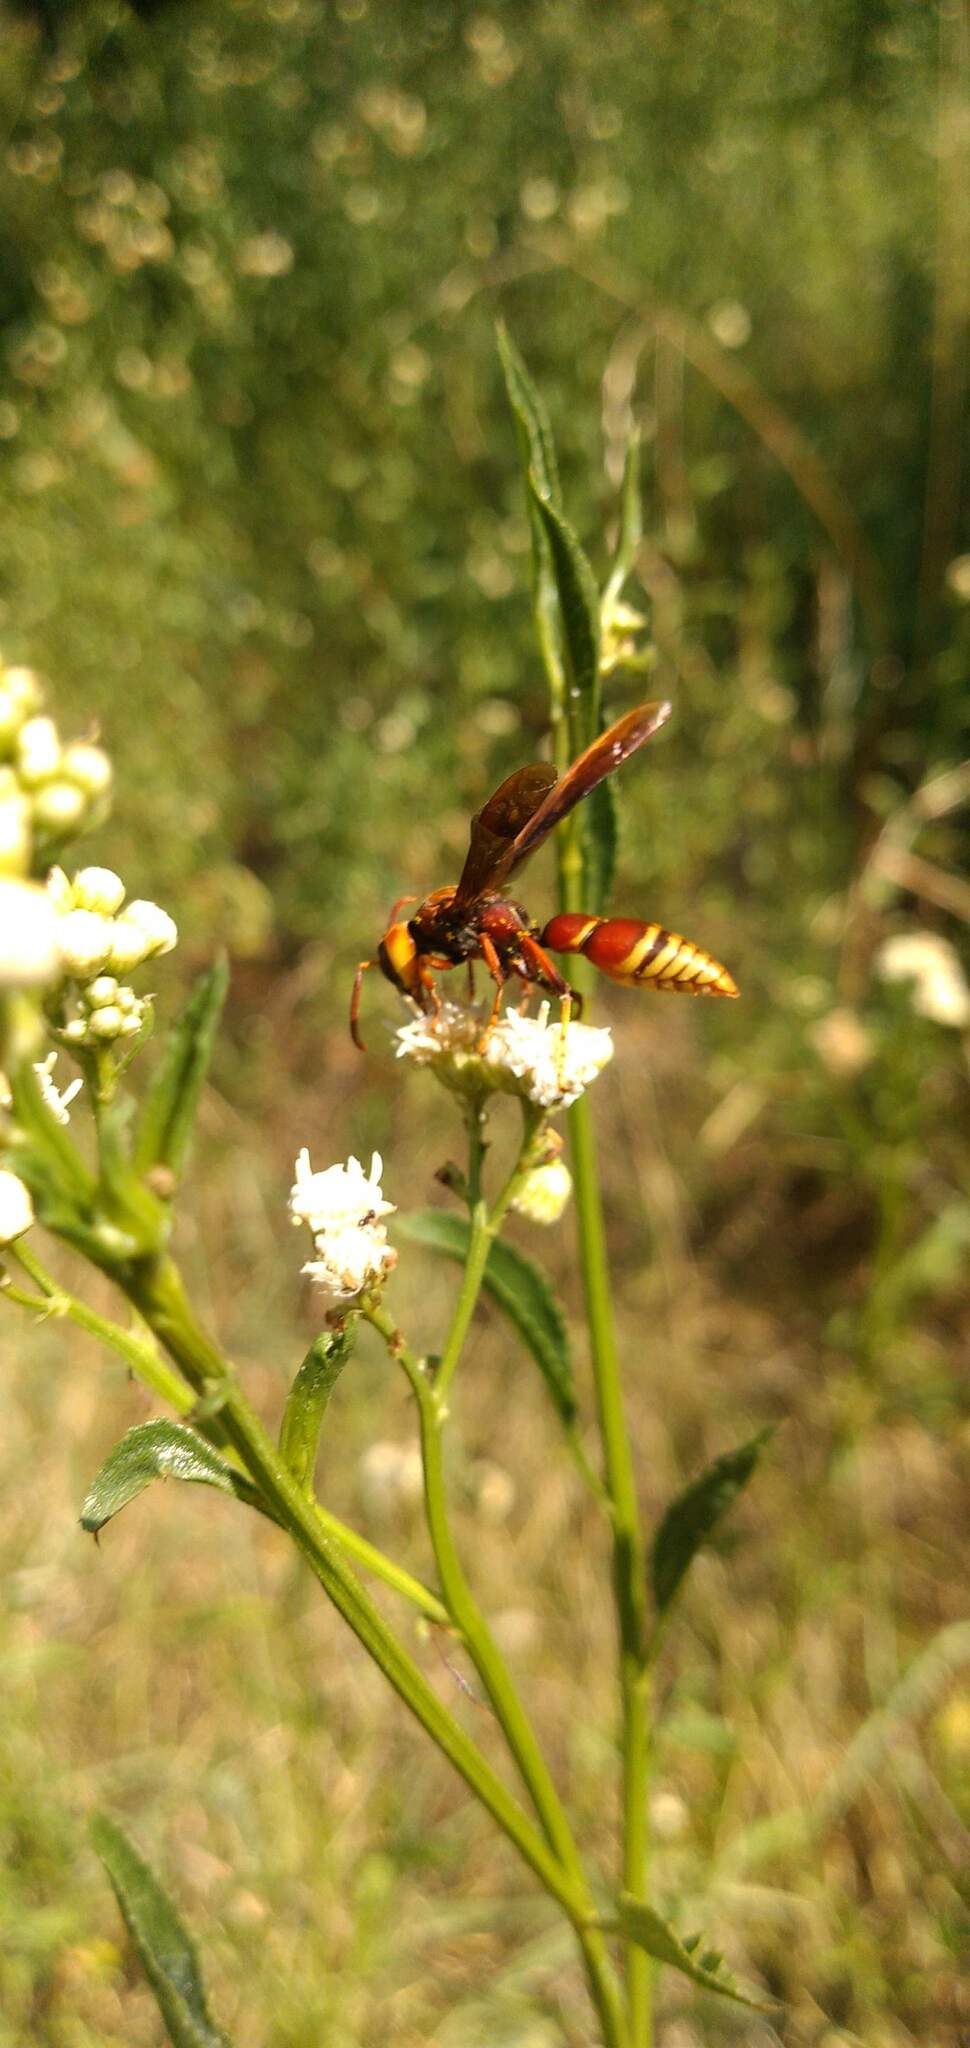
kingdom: Animalia
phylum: Arthropoda
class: Insecta
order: Hymenoptera
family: Eumenidae
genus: Montezumia
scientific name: Montezumia ferruginea
